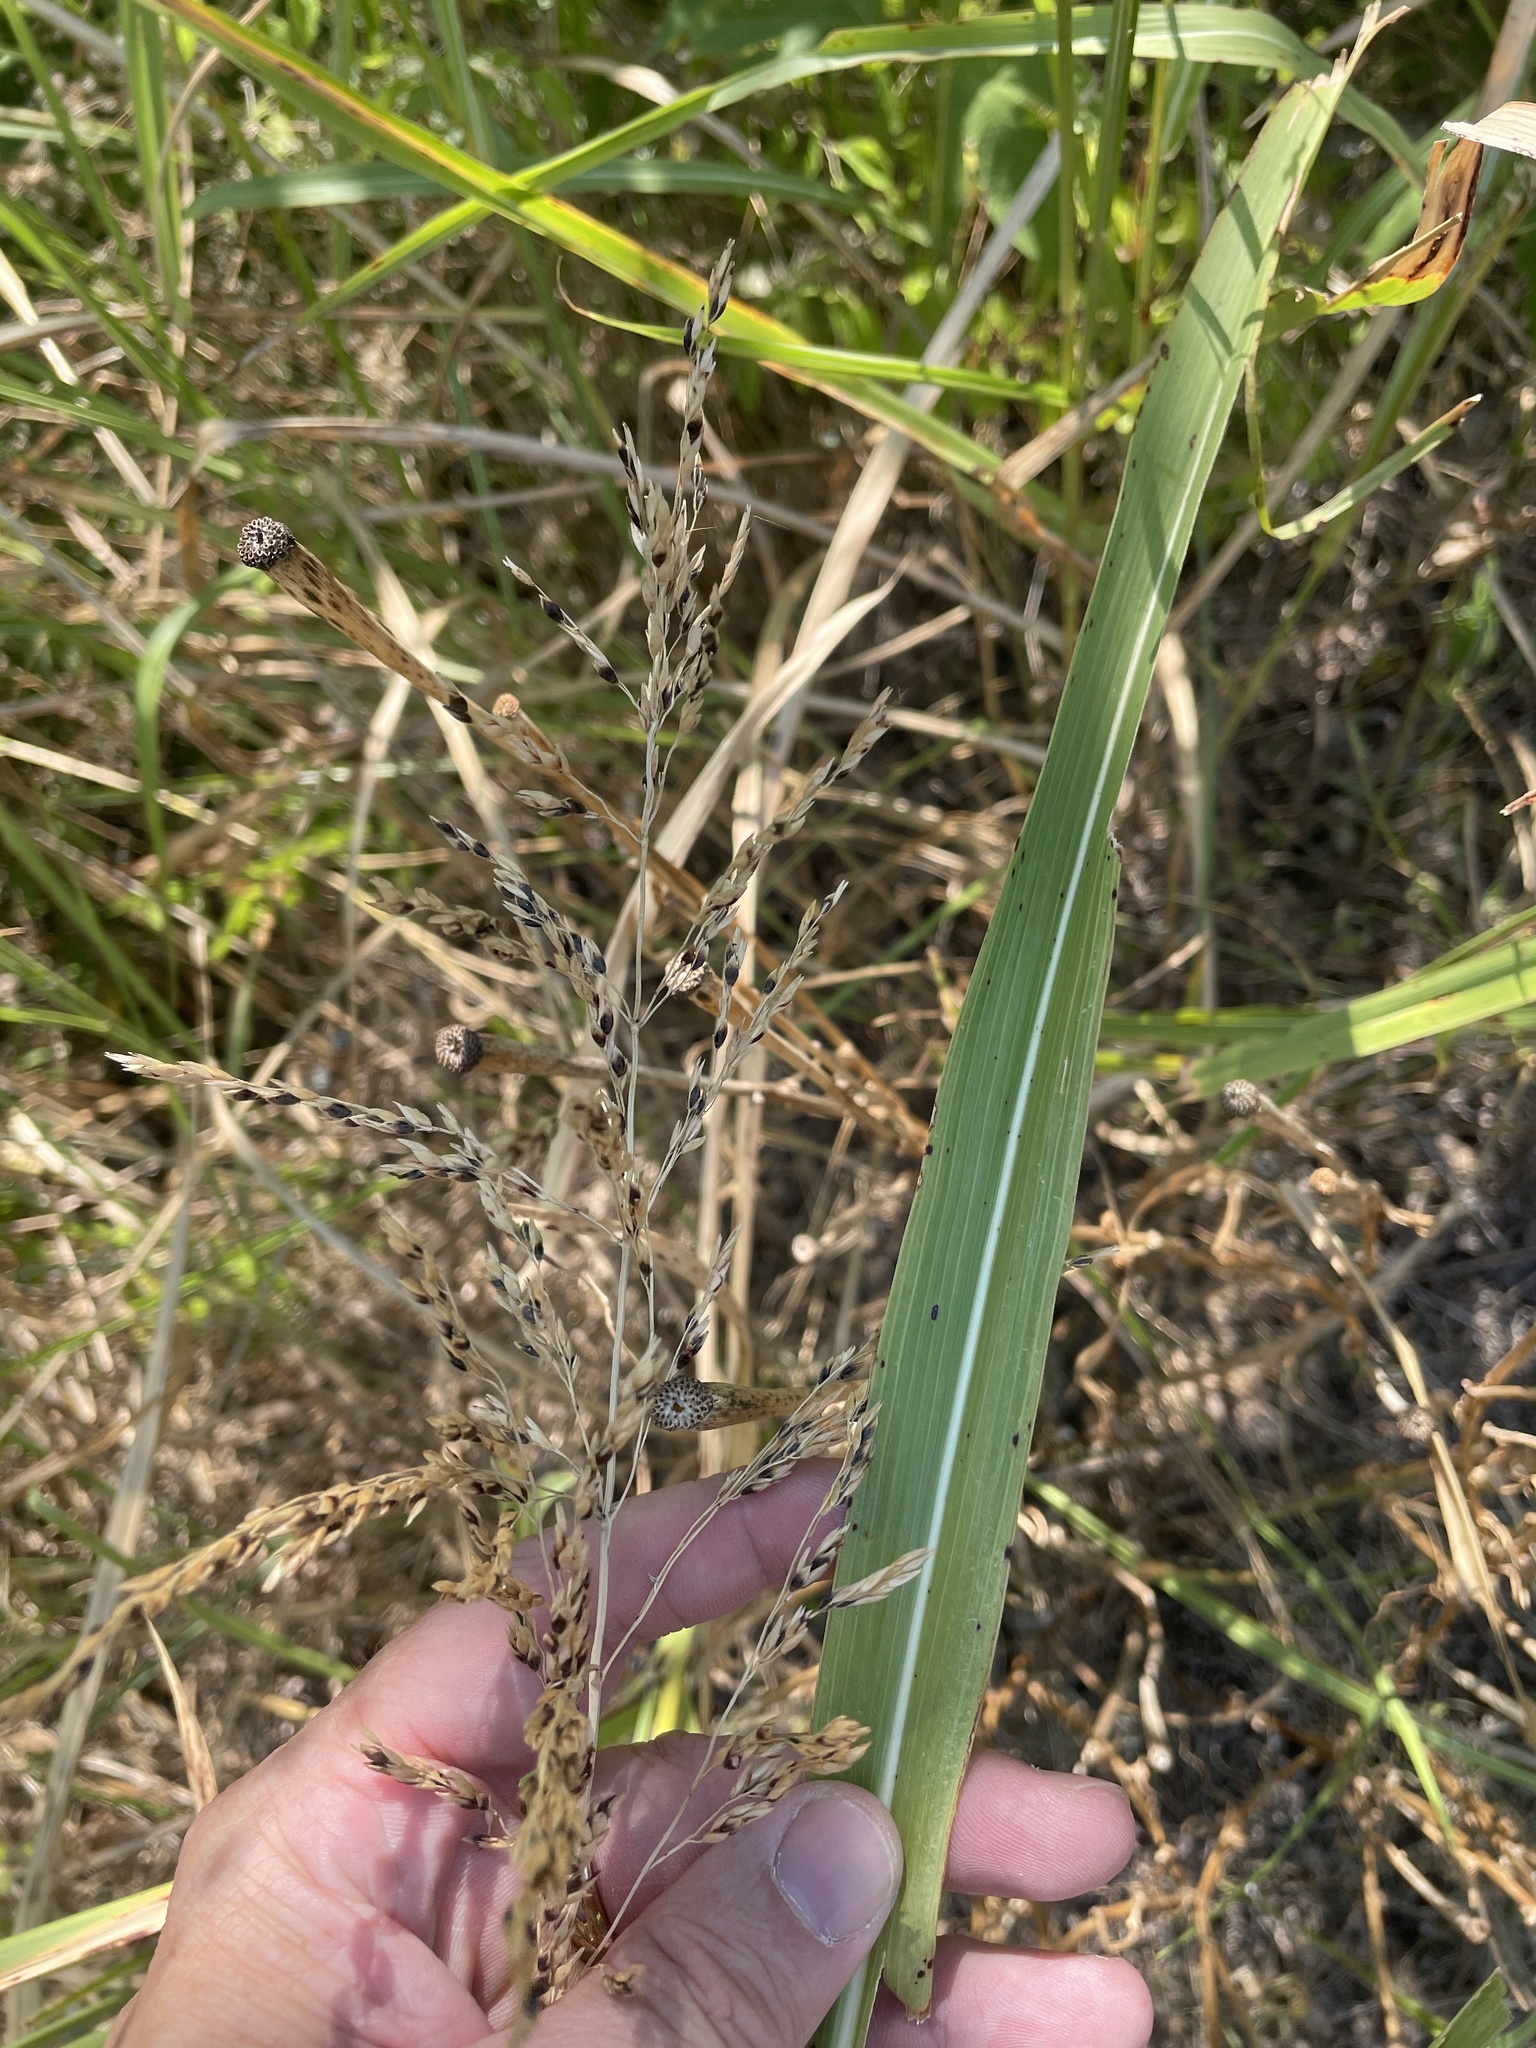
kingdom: Plantae
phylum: Tracheophyta
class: Liliopsida
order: Poales
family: Poaceae
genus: Sorghum
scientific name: Sorghum halepense
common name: Johnson-grass
